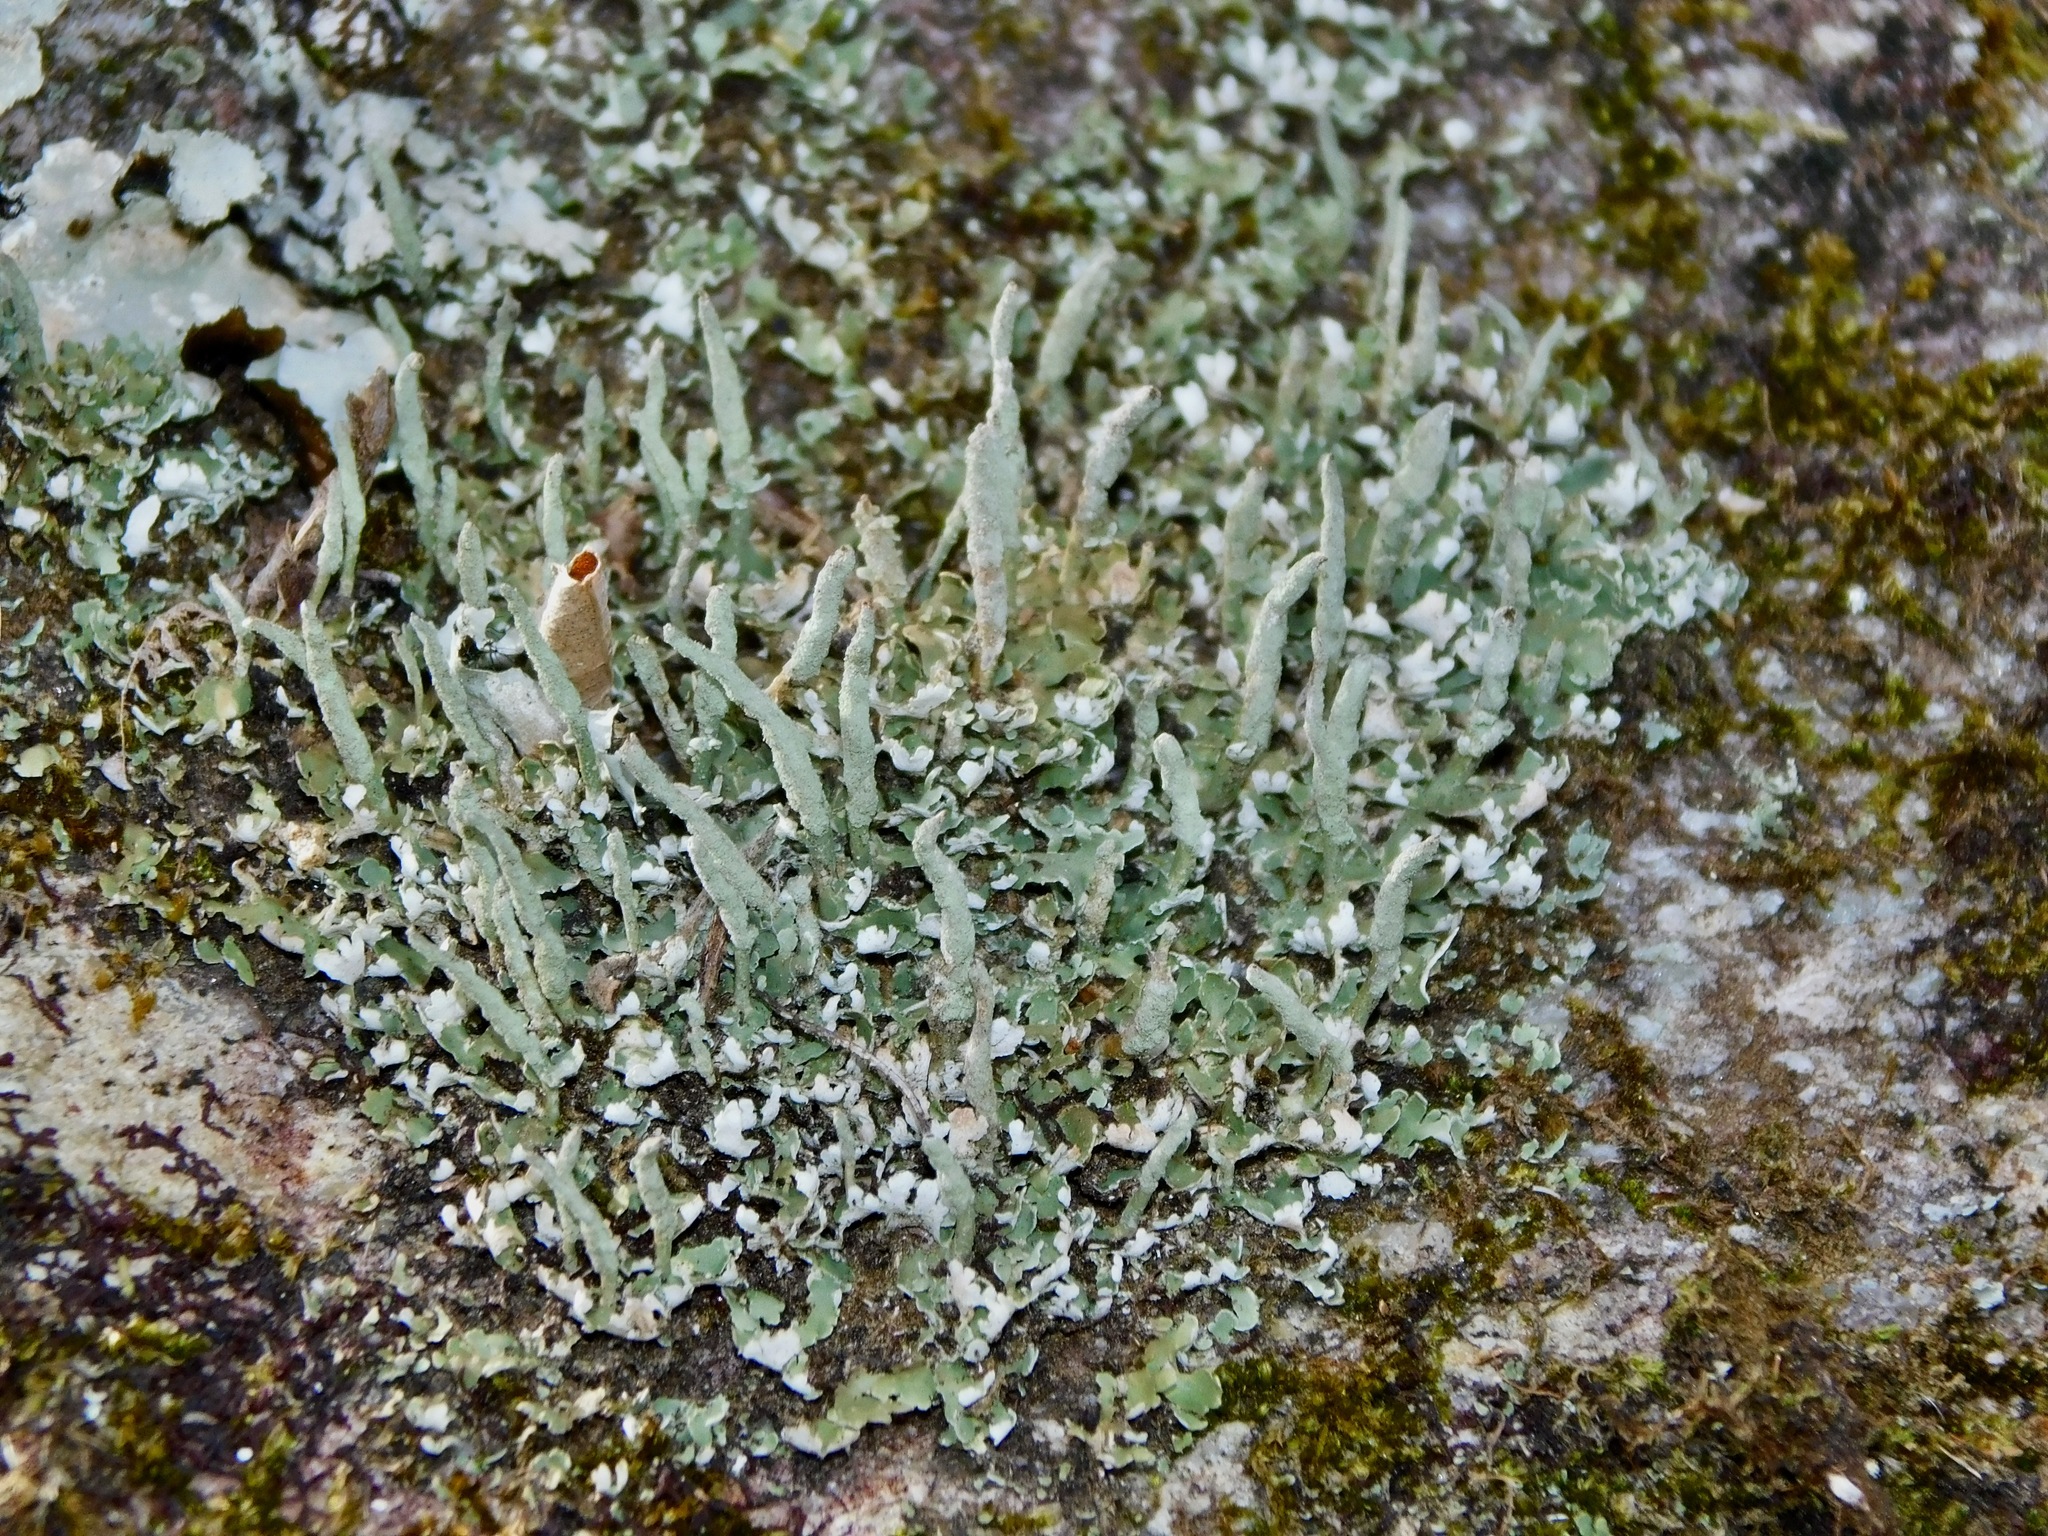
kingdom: Fungi
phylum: Ascomycota
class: Lecanoromycetes
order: Lecanorales
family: Cladoniaceae
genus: Cladonia
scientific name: Cladonia coniocraea
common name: Common powderhorn
